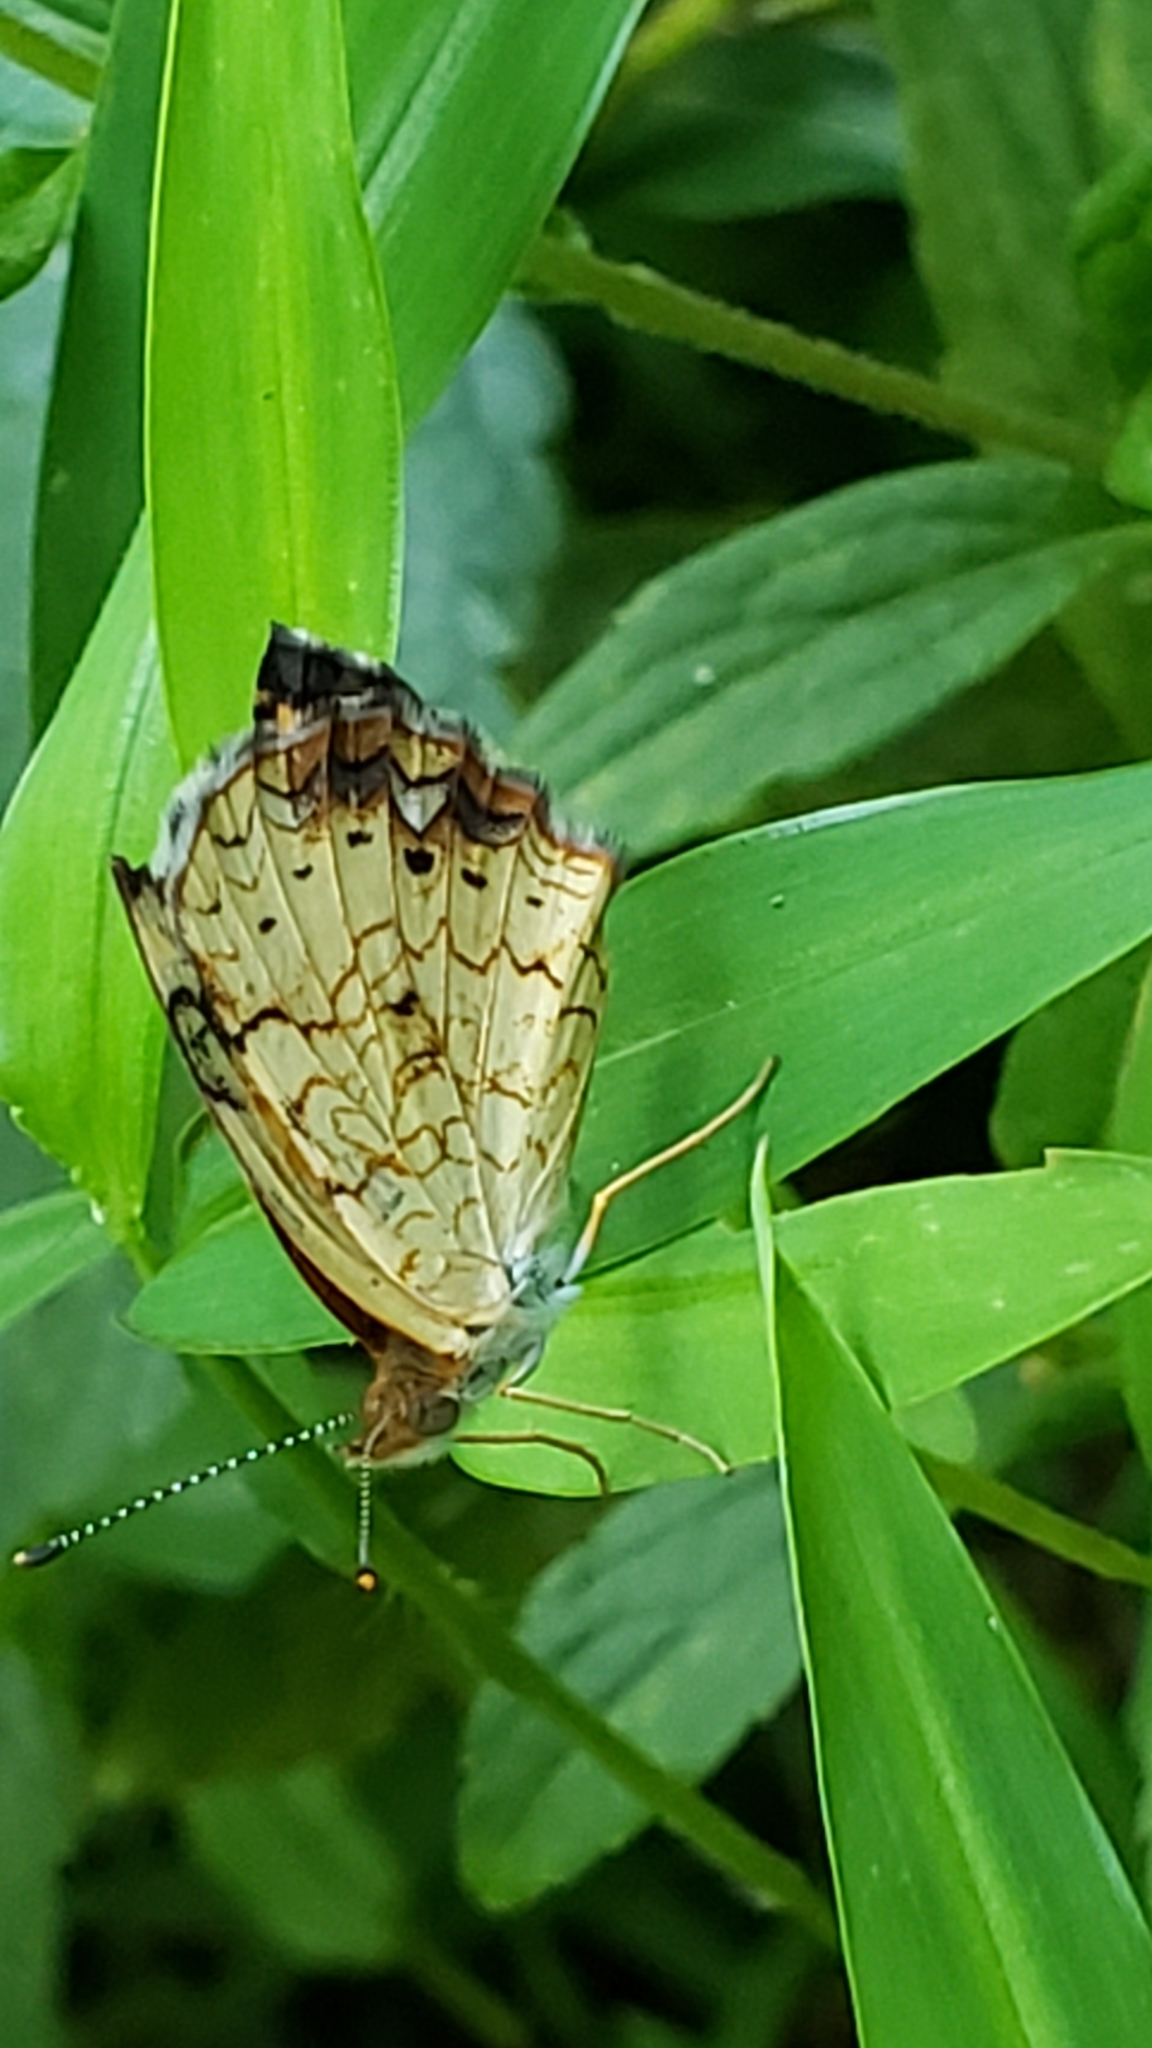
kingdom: Animalia
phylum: Arthropoda
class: Insecta
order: Lepidoptera
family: Nymphalidae
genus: Phyciodes
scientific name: Phyciodes tharos
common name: Pearl crescent
